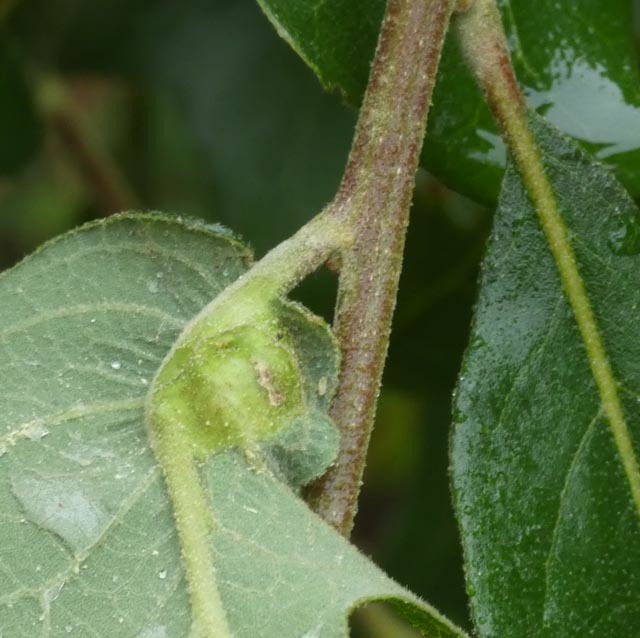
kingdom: Animalia
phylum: Arthropoda
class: Insecta
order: Hymenoptera
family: Cynipidae
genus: Andricus
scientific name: Andricus
